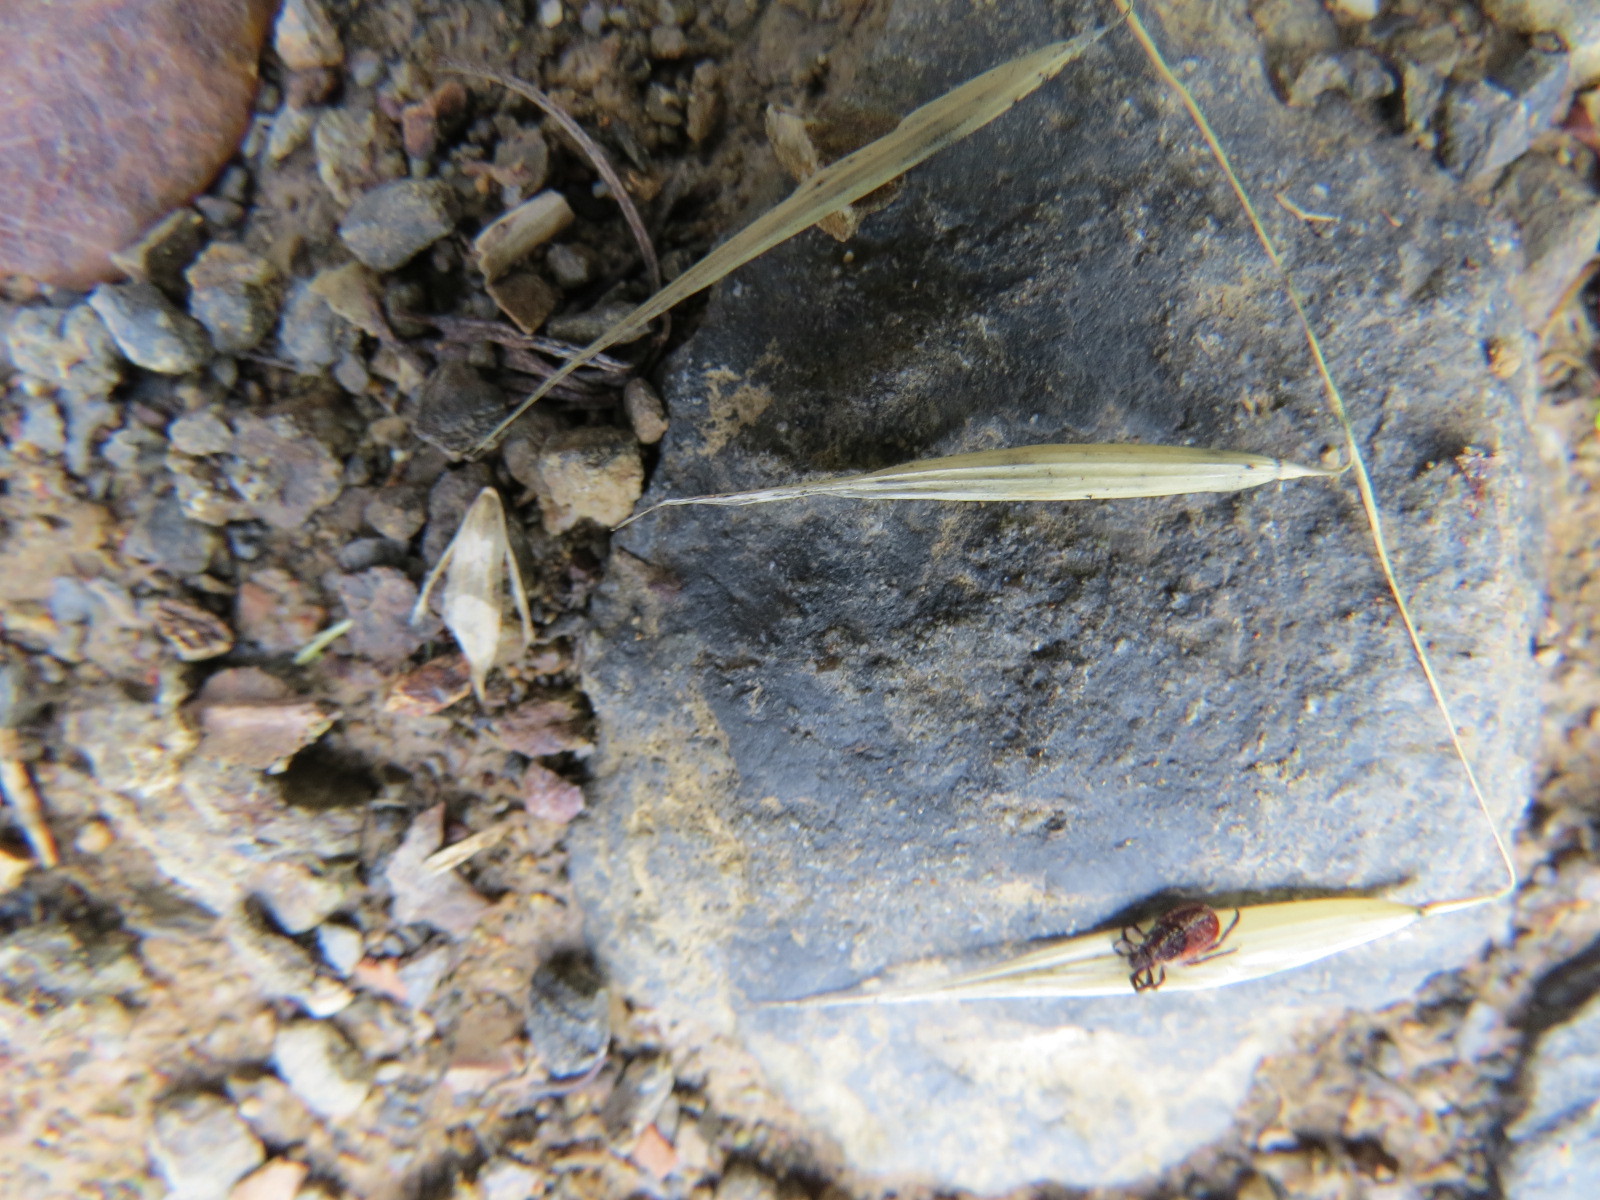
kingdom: Animalia
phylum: Arthropoda
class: Arachnida
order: Ixodida
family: Ixodidae
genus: Ixodes
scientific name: Ixodes pacificus
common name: California black-legged tick
